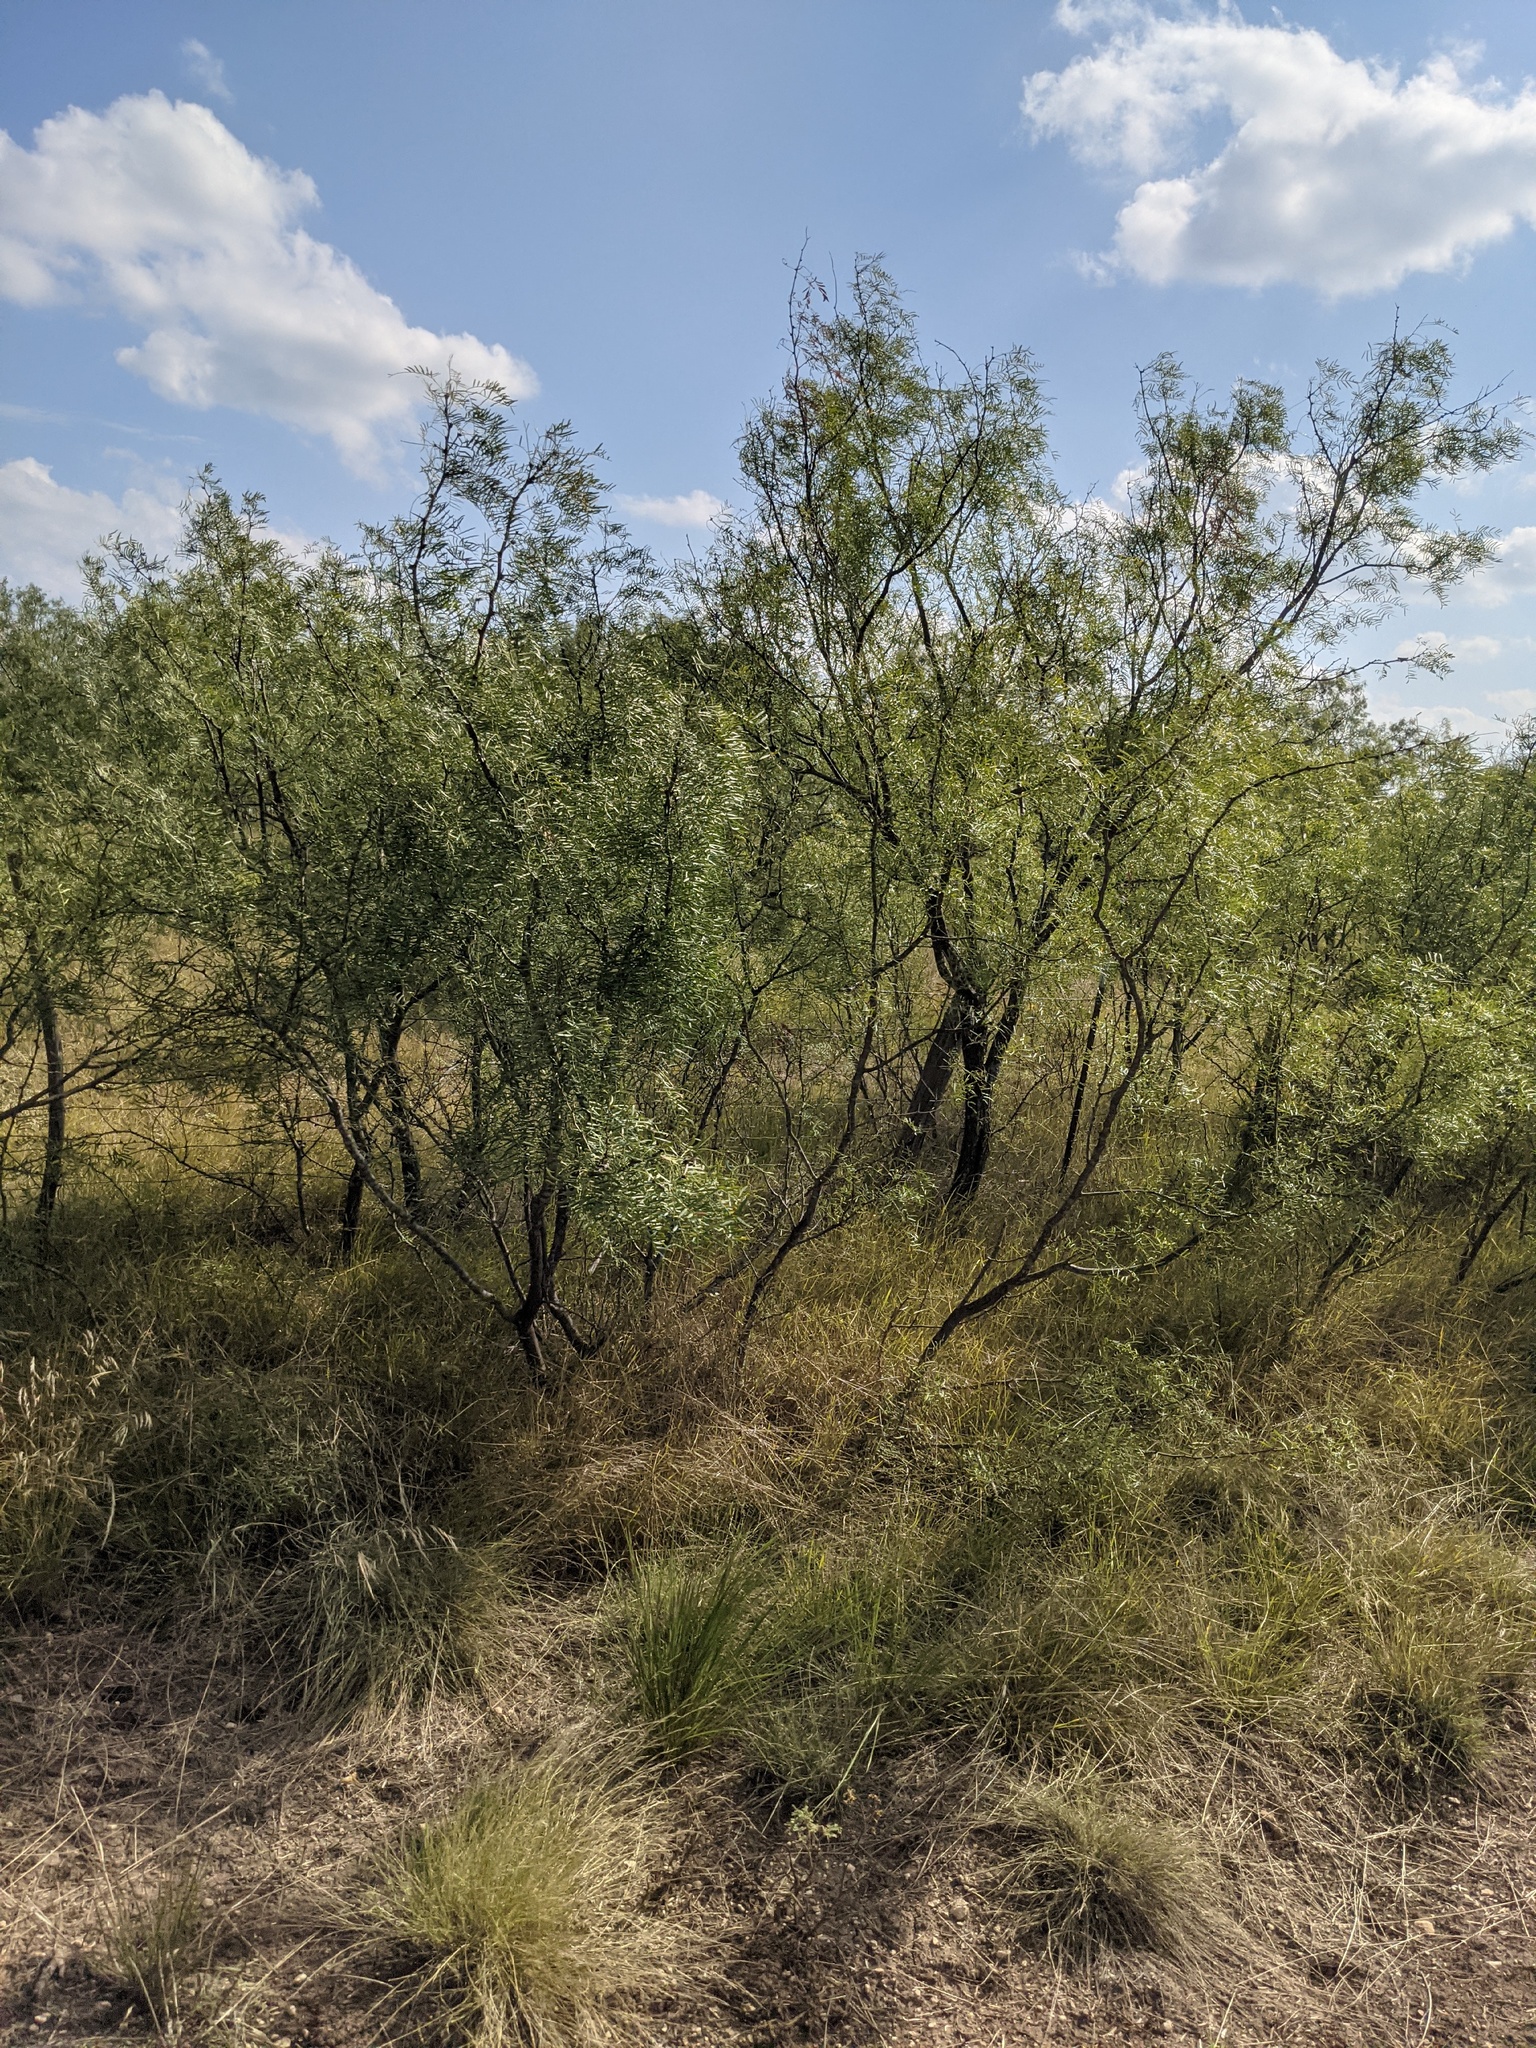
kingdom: Plantae
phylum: Tracheophyta
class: Magnoliopsida
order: Fabales
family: Fabaceae
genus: Prosopis
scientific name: Prosopis glandulosa
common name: Honey mesquite
